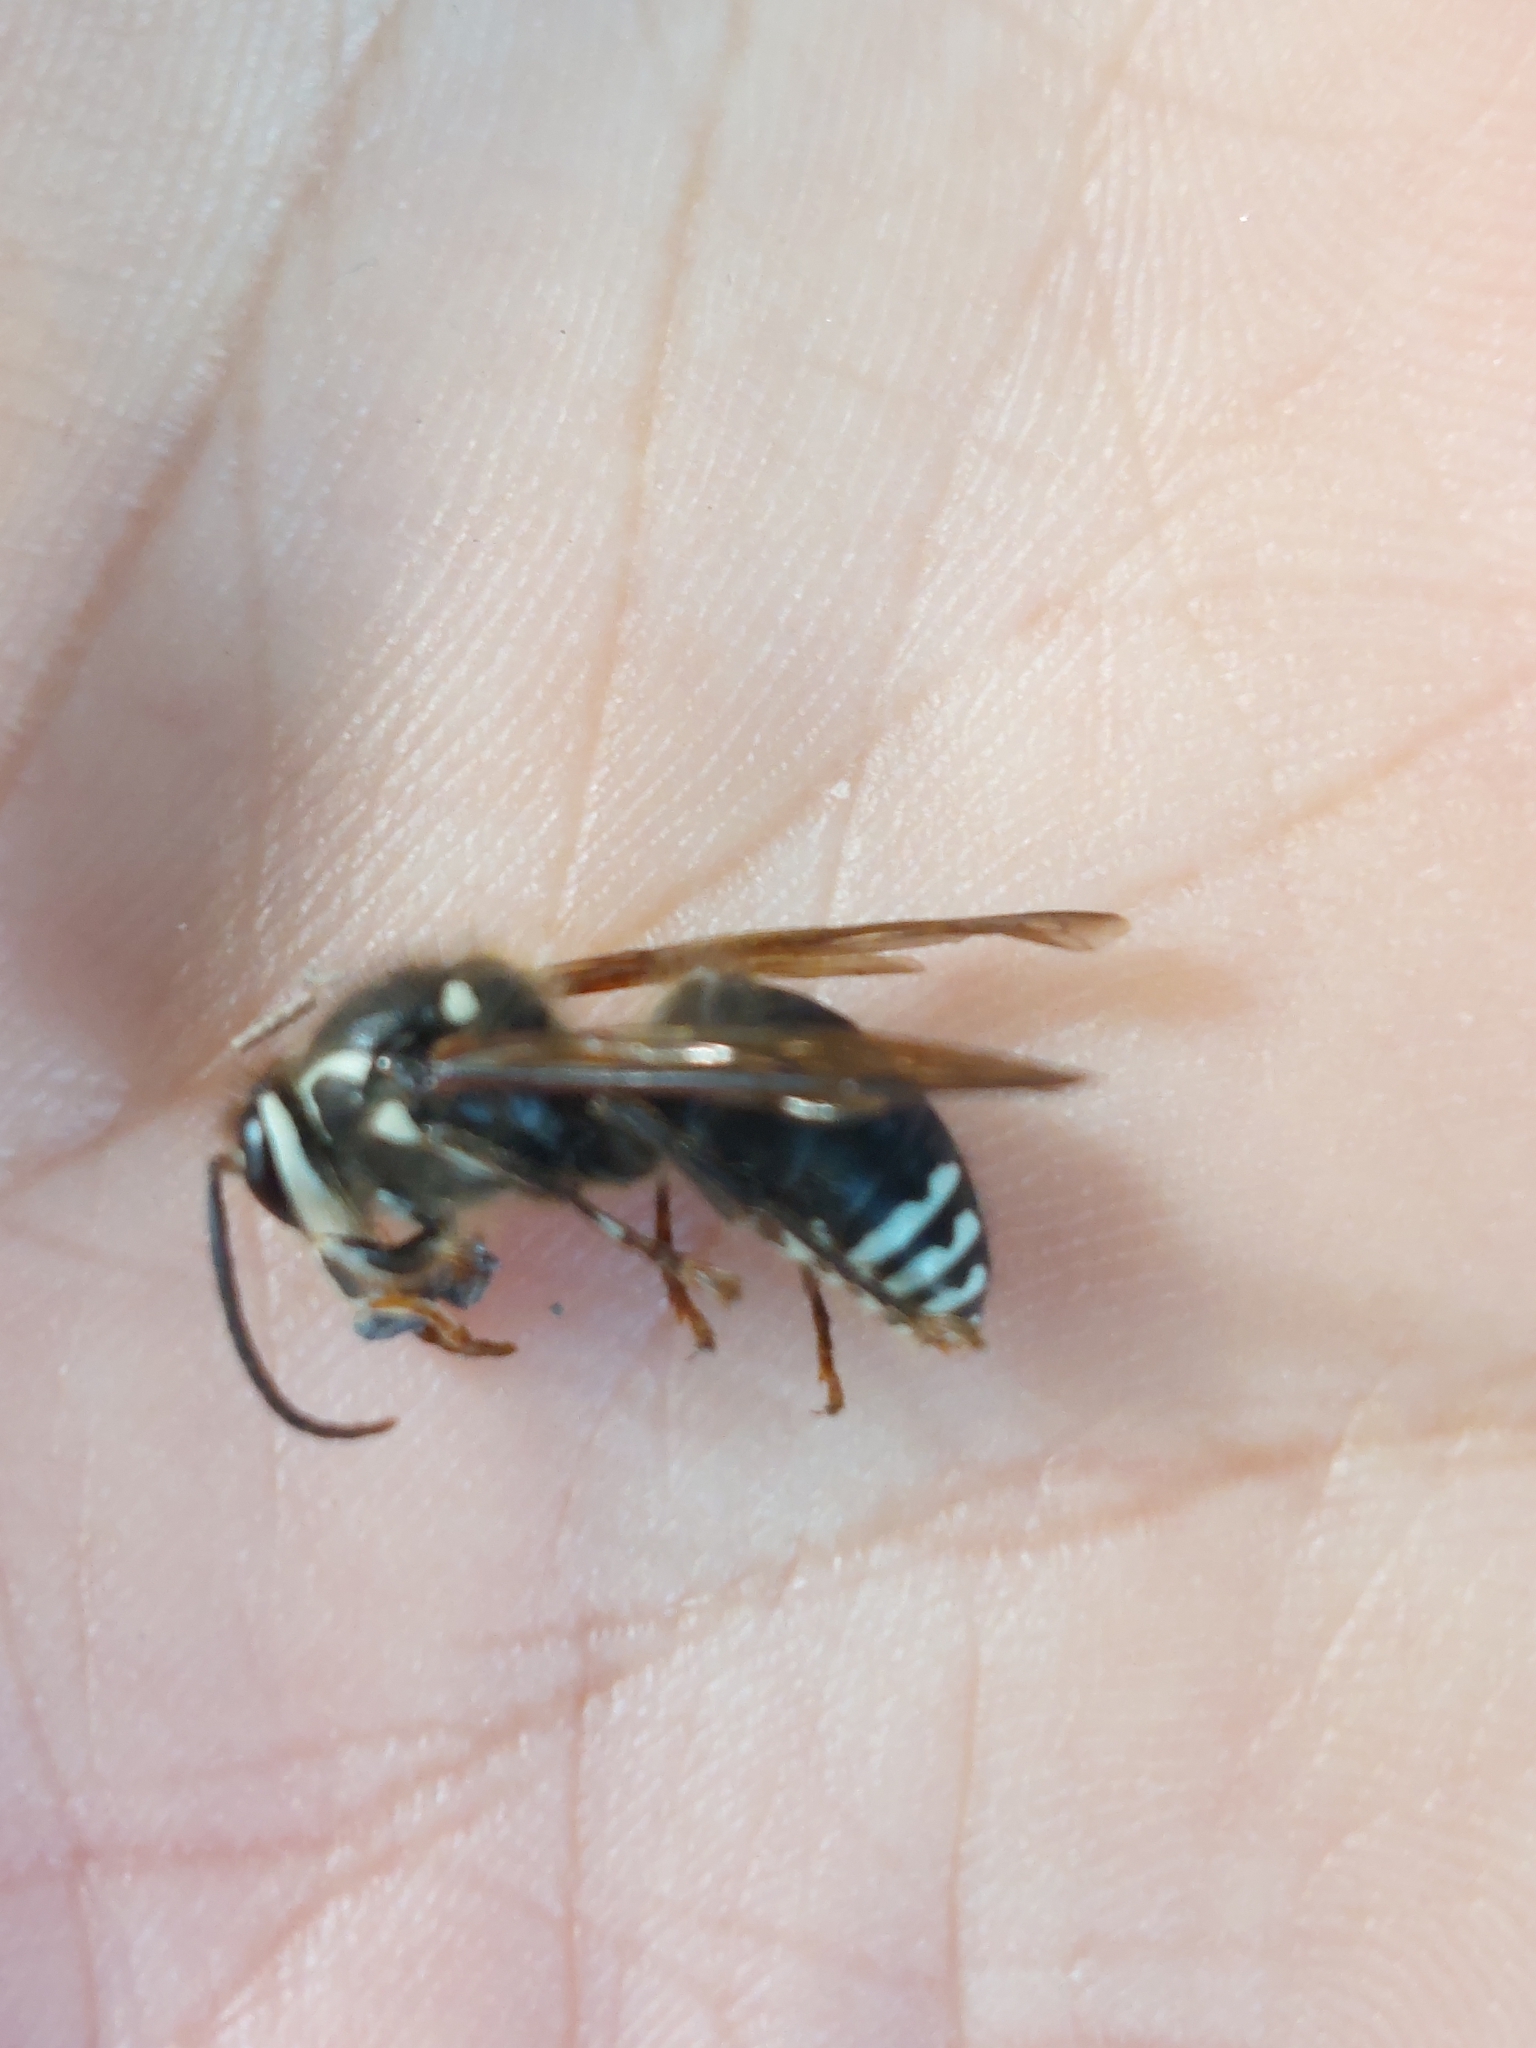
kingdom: Animalia
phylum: Arthropoda
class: Insecta
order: Hymenoptera
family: Vespidae
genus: Dolichovespula
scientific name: Dolichovespula maculata
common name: Bald-faced hornet
